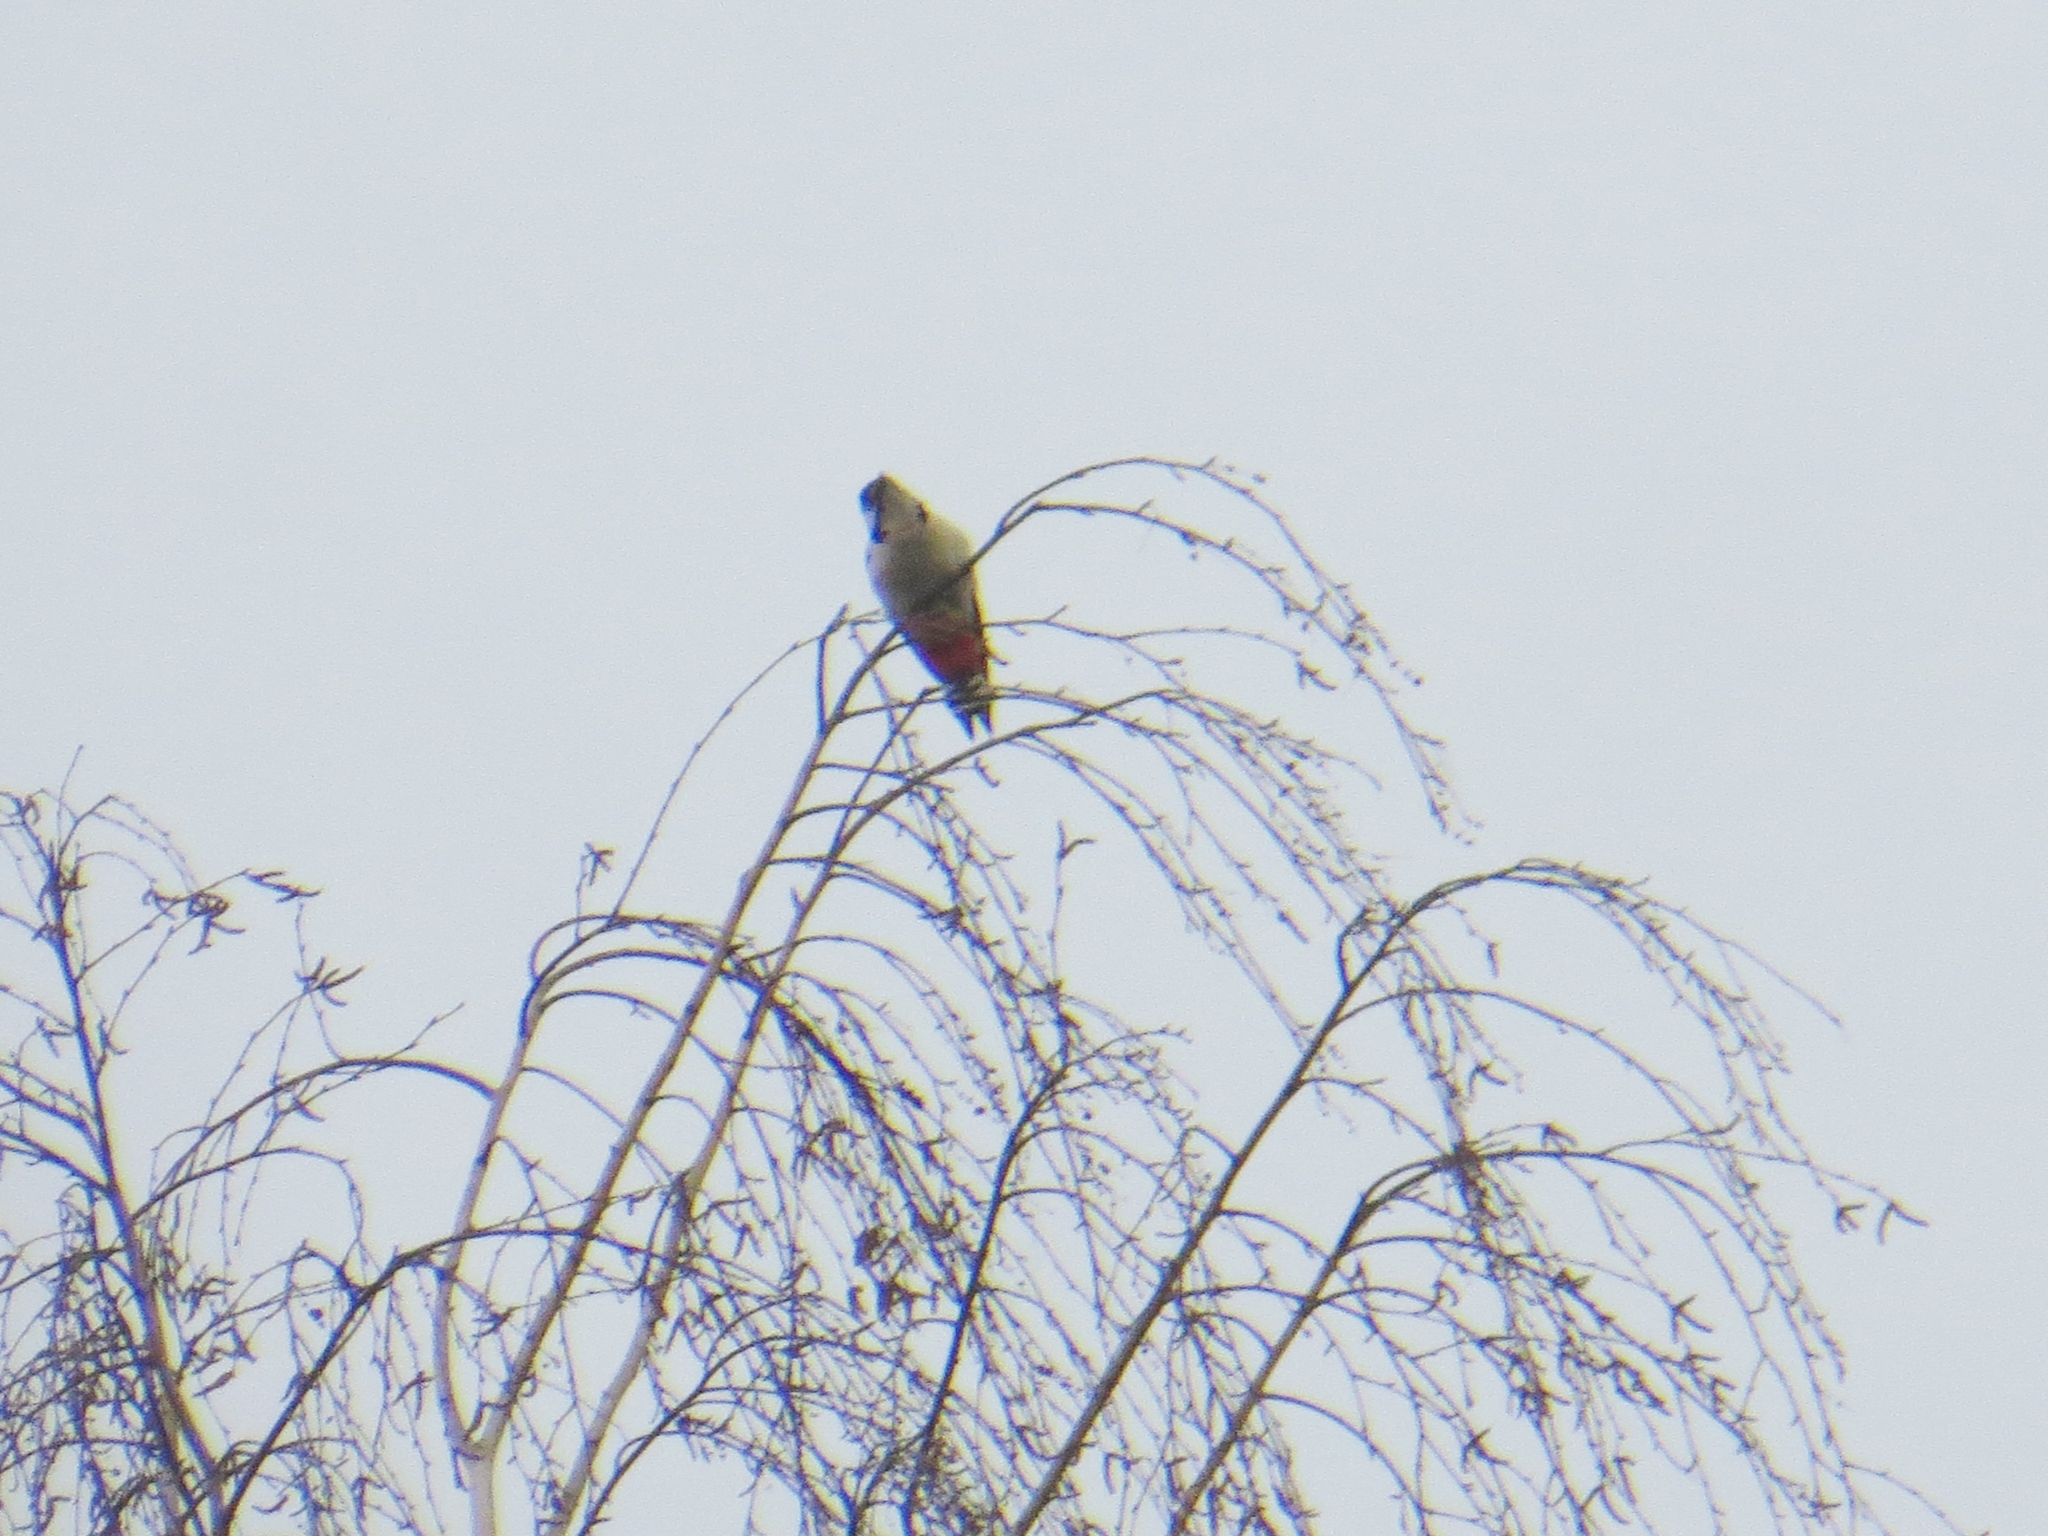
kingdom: Animalia
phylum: Chordata
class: Aves
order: Piciformes
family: Picidae
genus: Dendrocopos
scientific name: Dendrocopos major
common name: Great spotted woodpecker
